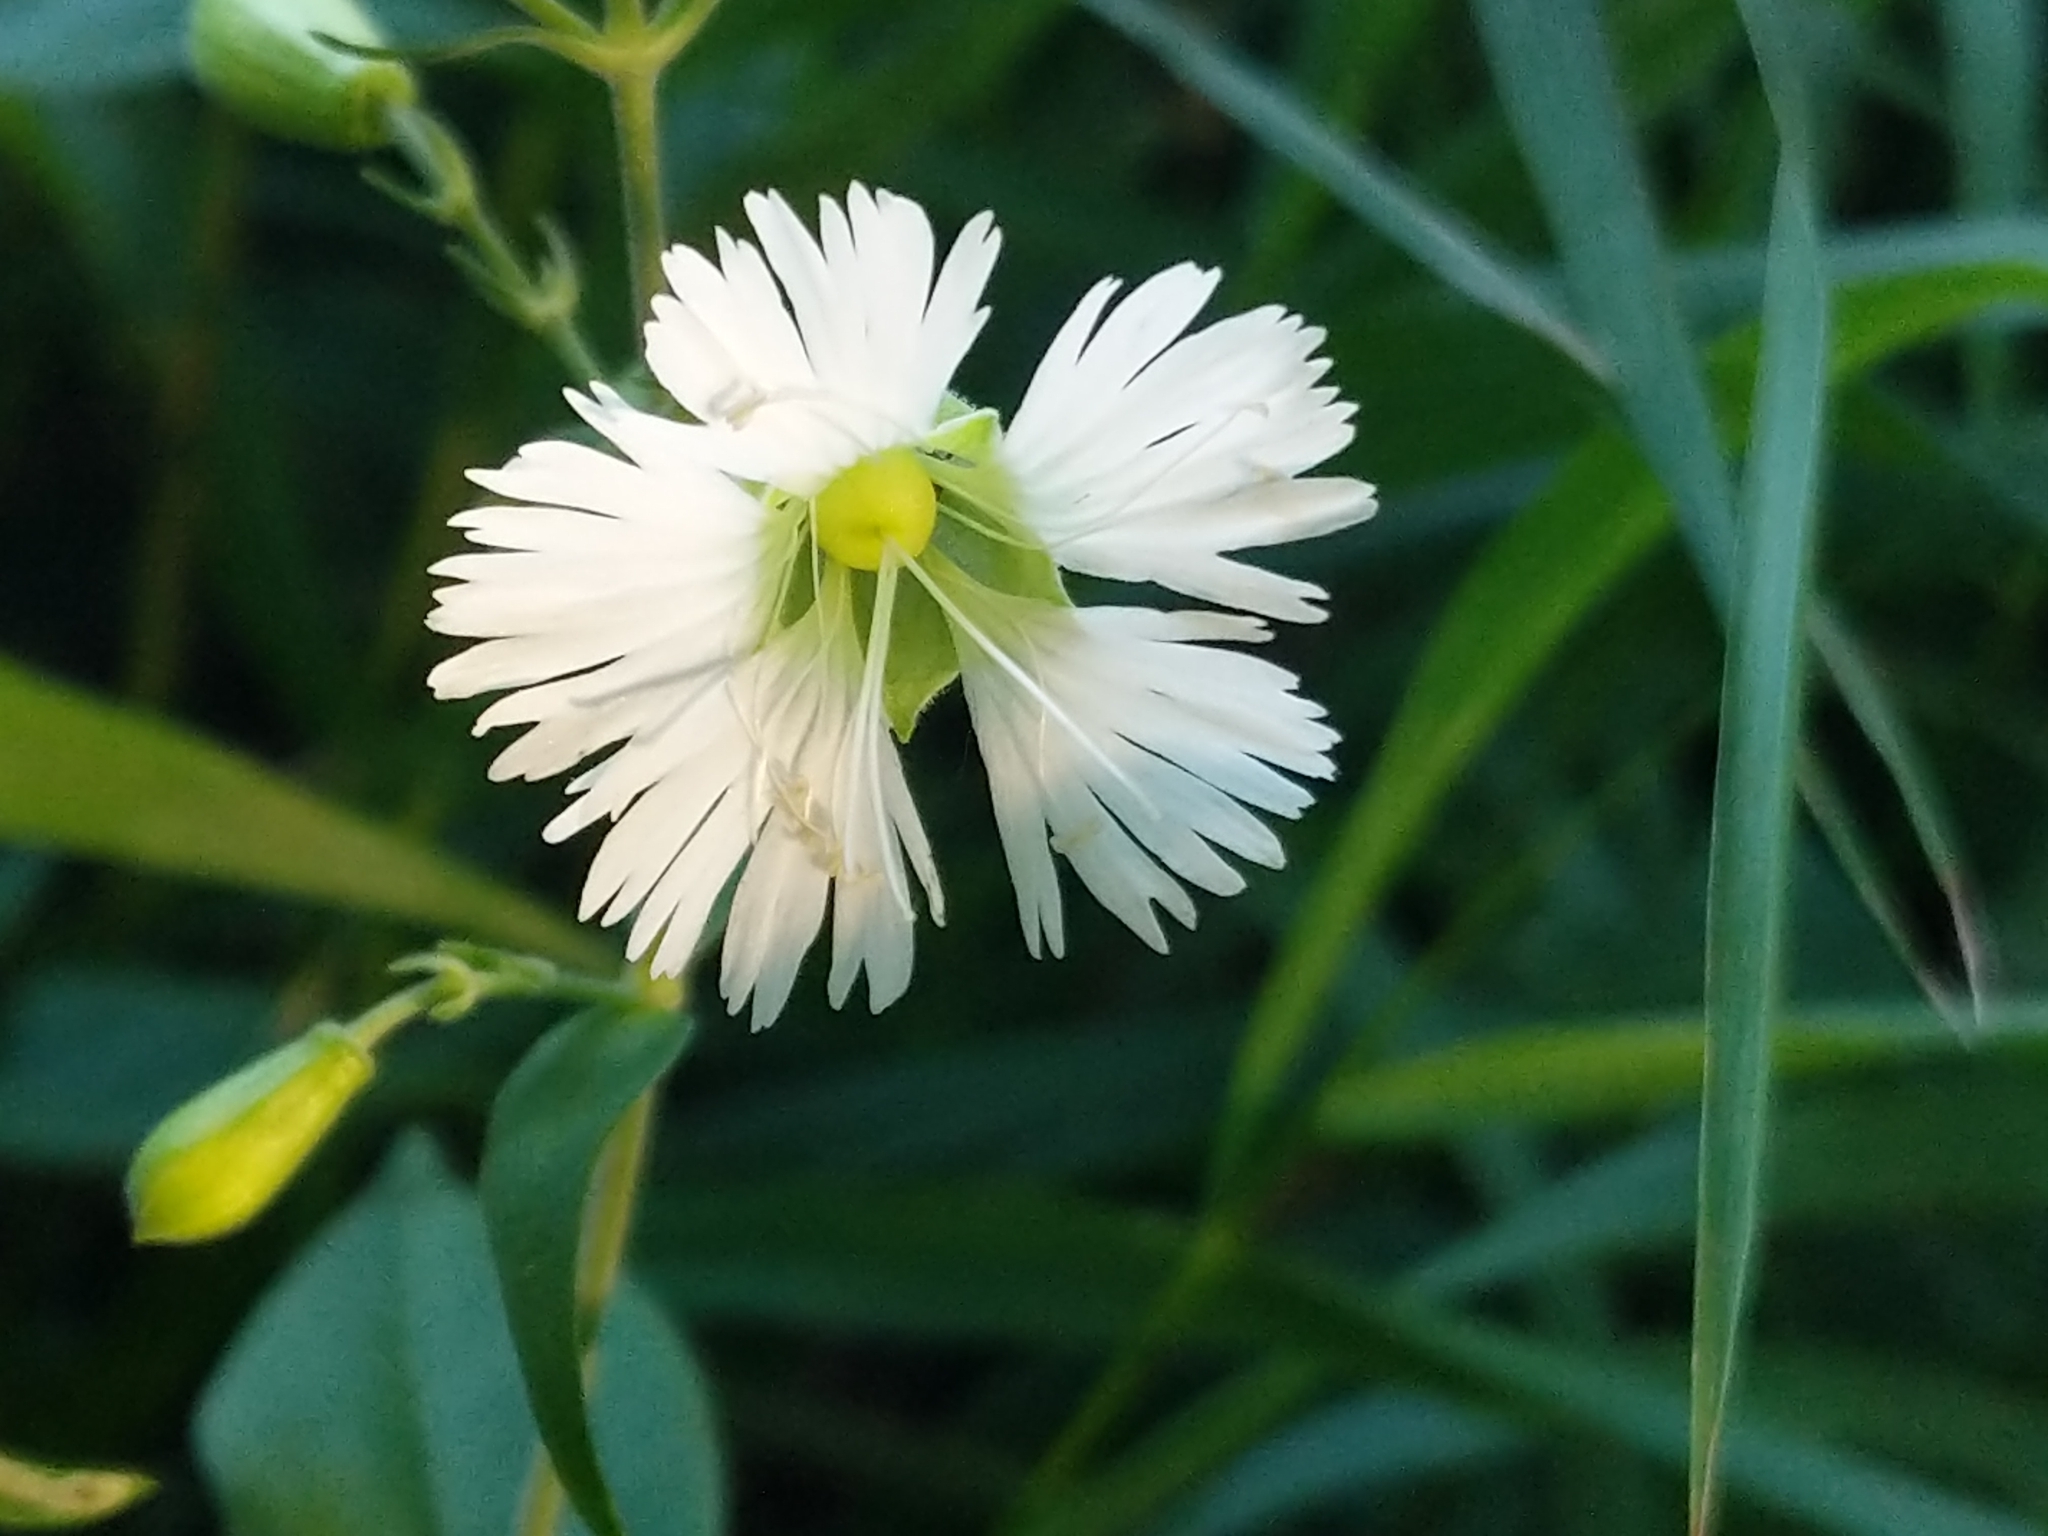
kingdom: Plantae
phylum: Tracheophyta
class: Magnoliopsida
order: Caryophyllales
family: Caryophyllaceae
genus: Silene
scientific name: Silene stellata
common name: Starry campion
